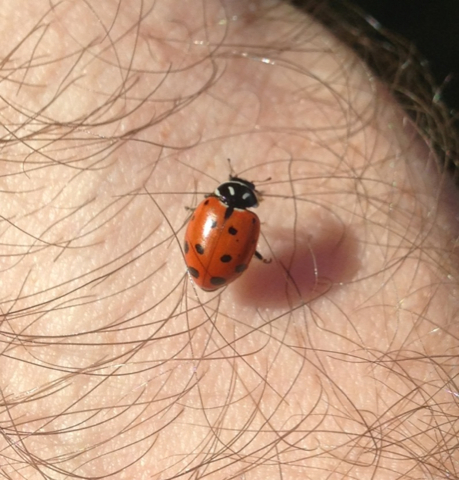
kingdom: Animalia
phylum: Arthropoda
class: Insecta
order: Coleoptera
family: Coccinellidae
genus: Hippodamia
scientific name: Hippodamia convergens
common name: Convergent lady beetle
